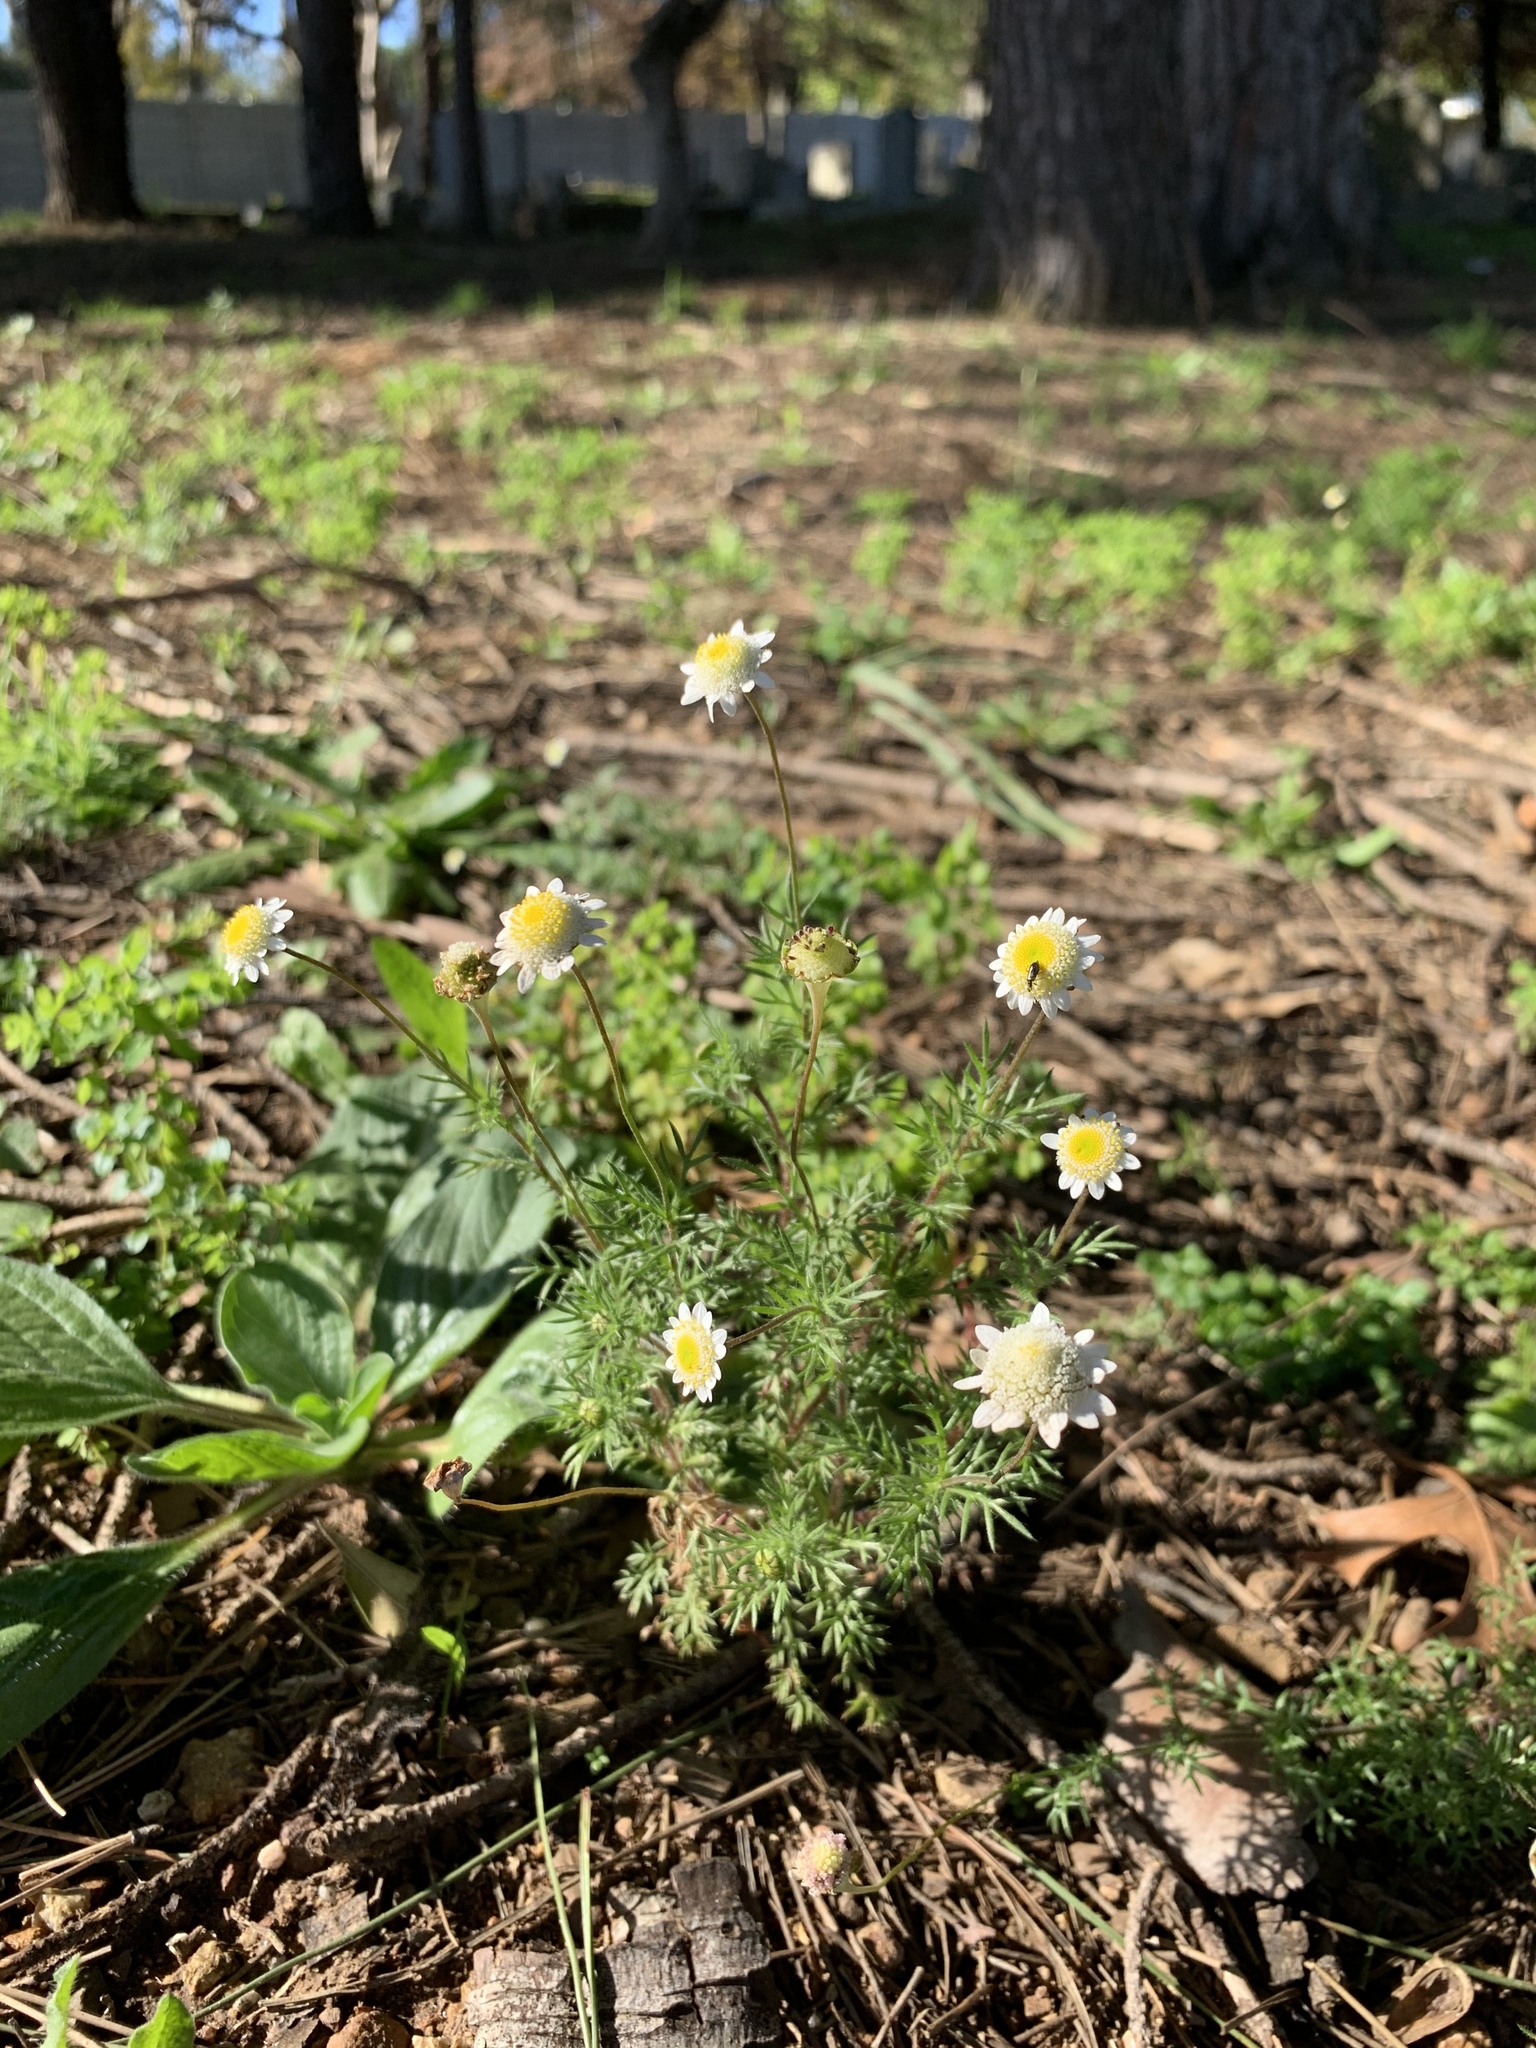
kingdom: Plantae
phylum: Tracheophyta
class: Magnoliopsida
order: Asterales
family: Asteraceae
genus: Cotula
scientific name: Cotula turbinata
